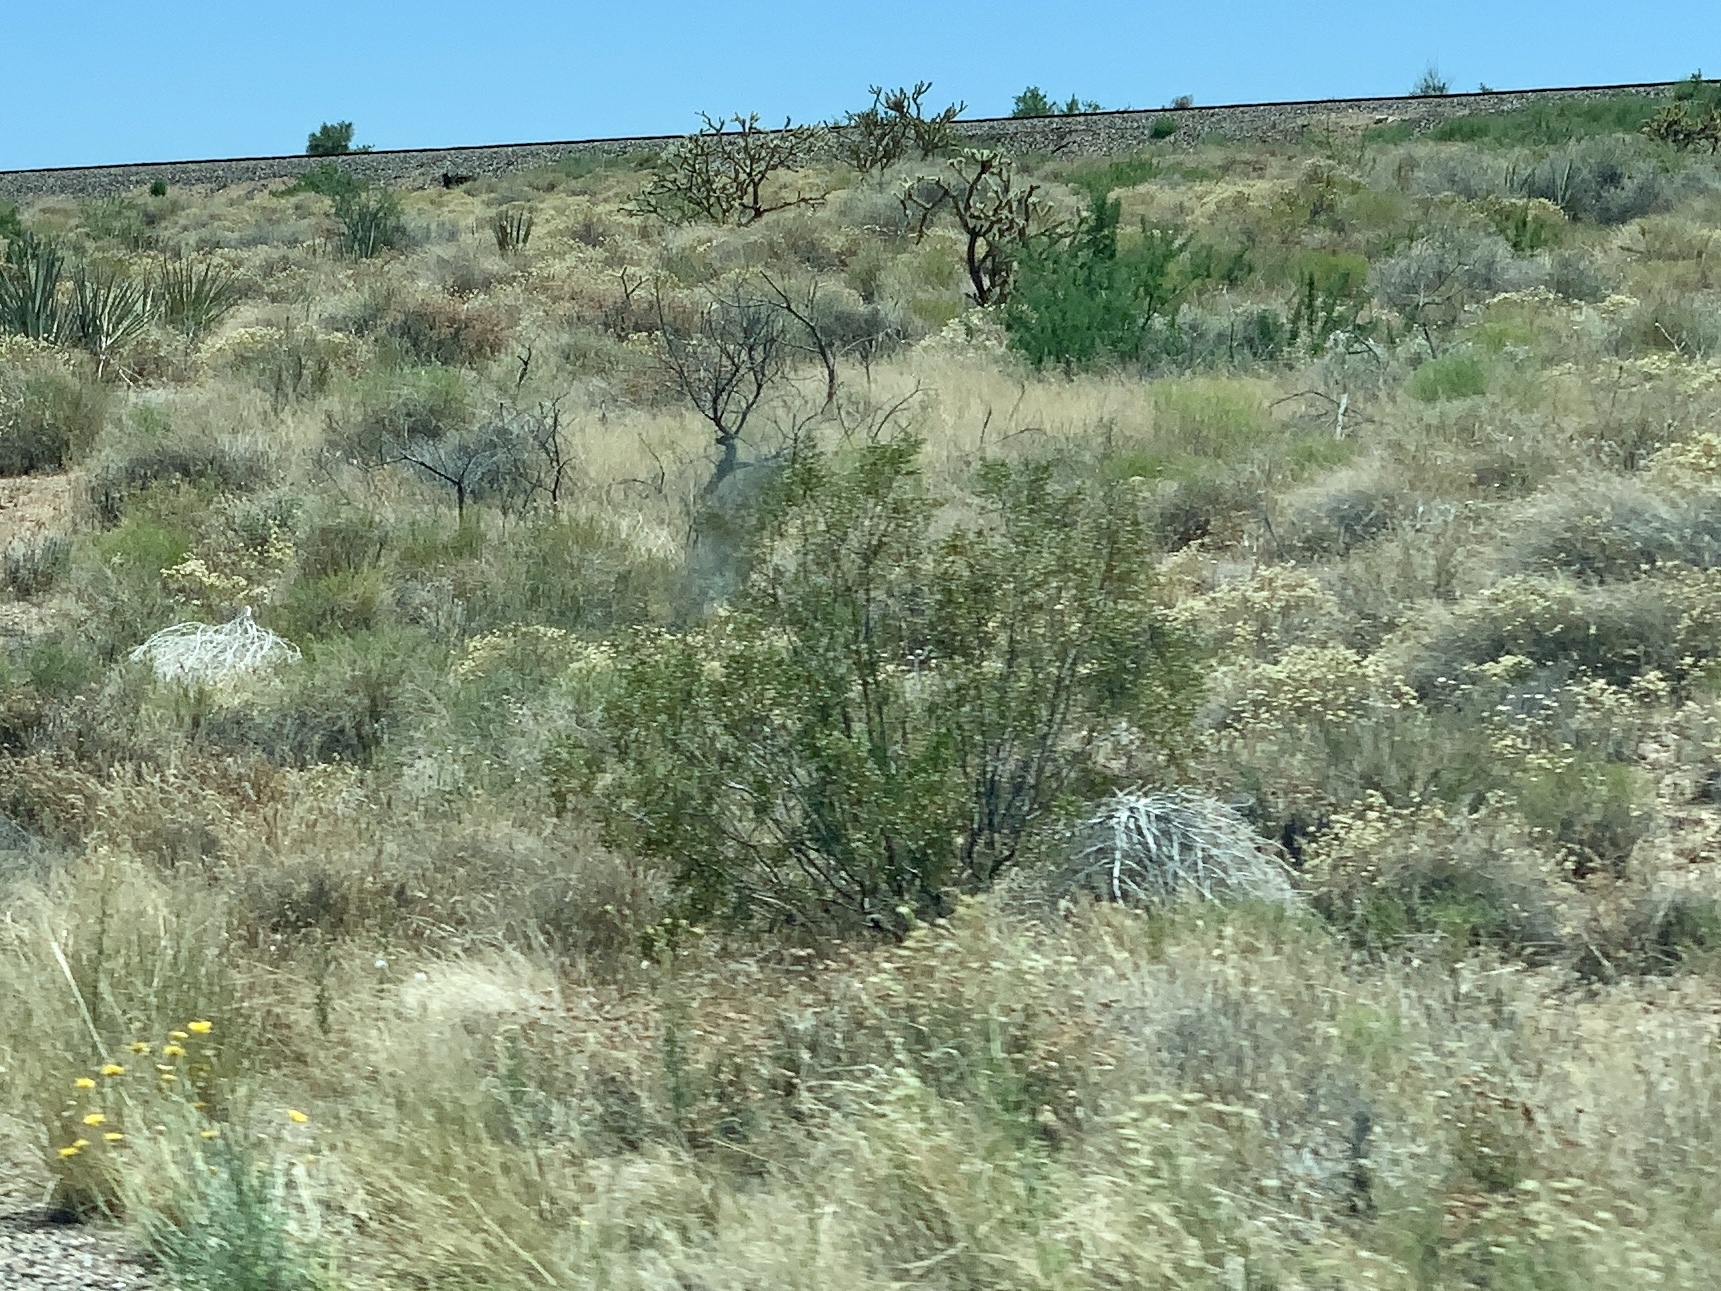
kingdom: Plantae
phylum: Tracheophyta
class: Magnoliopsida
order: Zygophyllales
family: Zygophyllaceae
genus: Larrea
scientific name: Larrea tridentata
